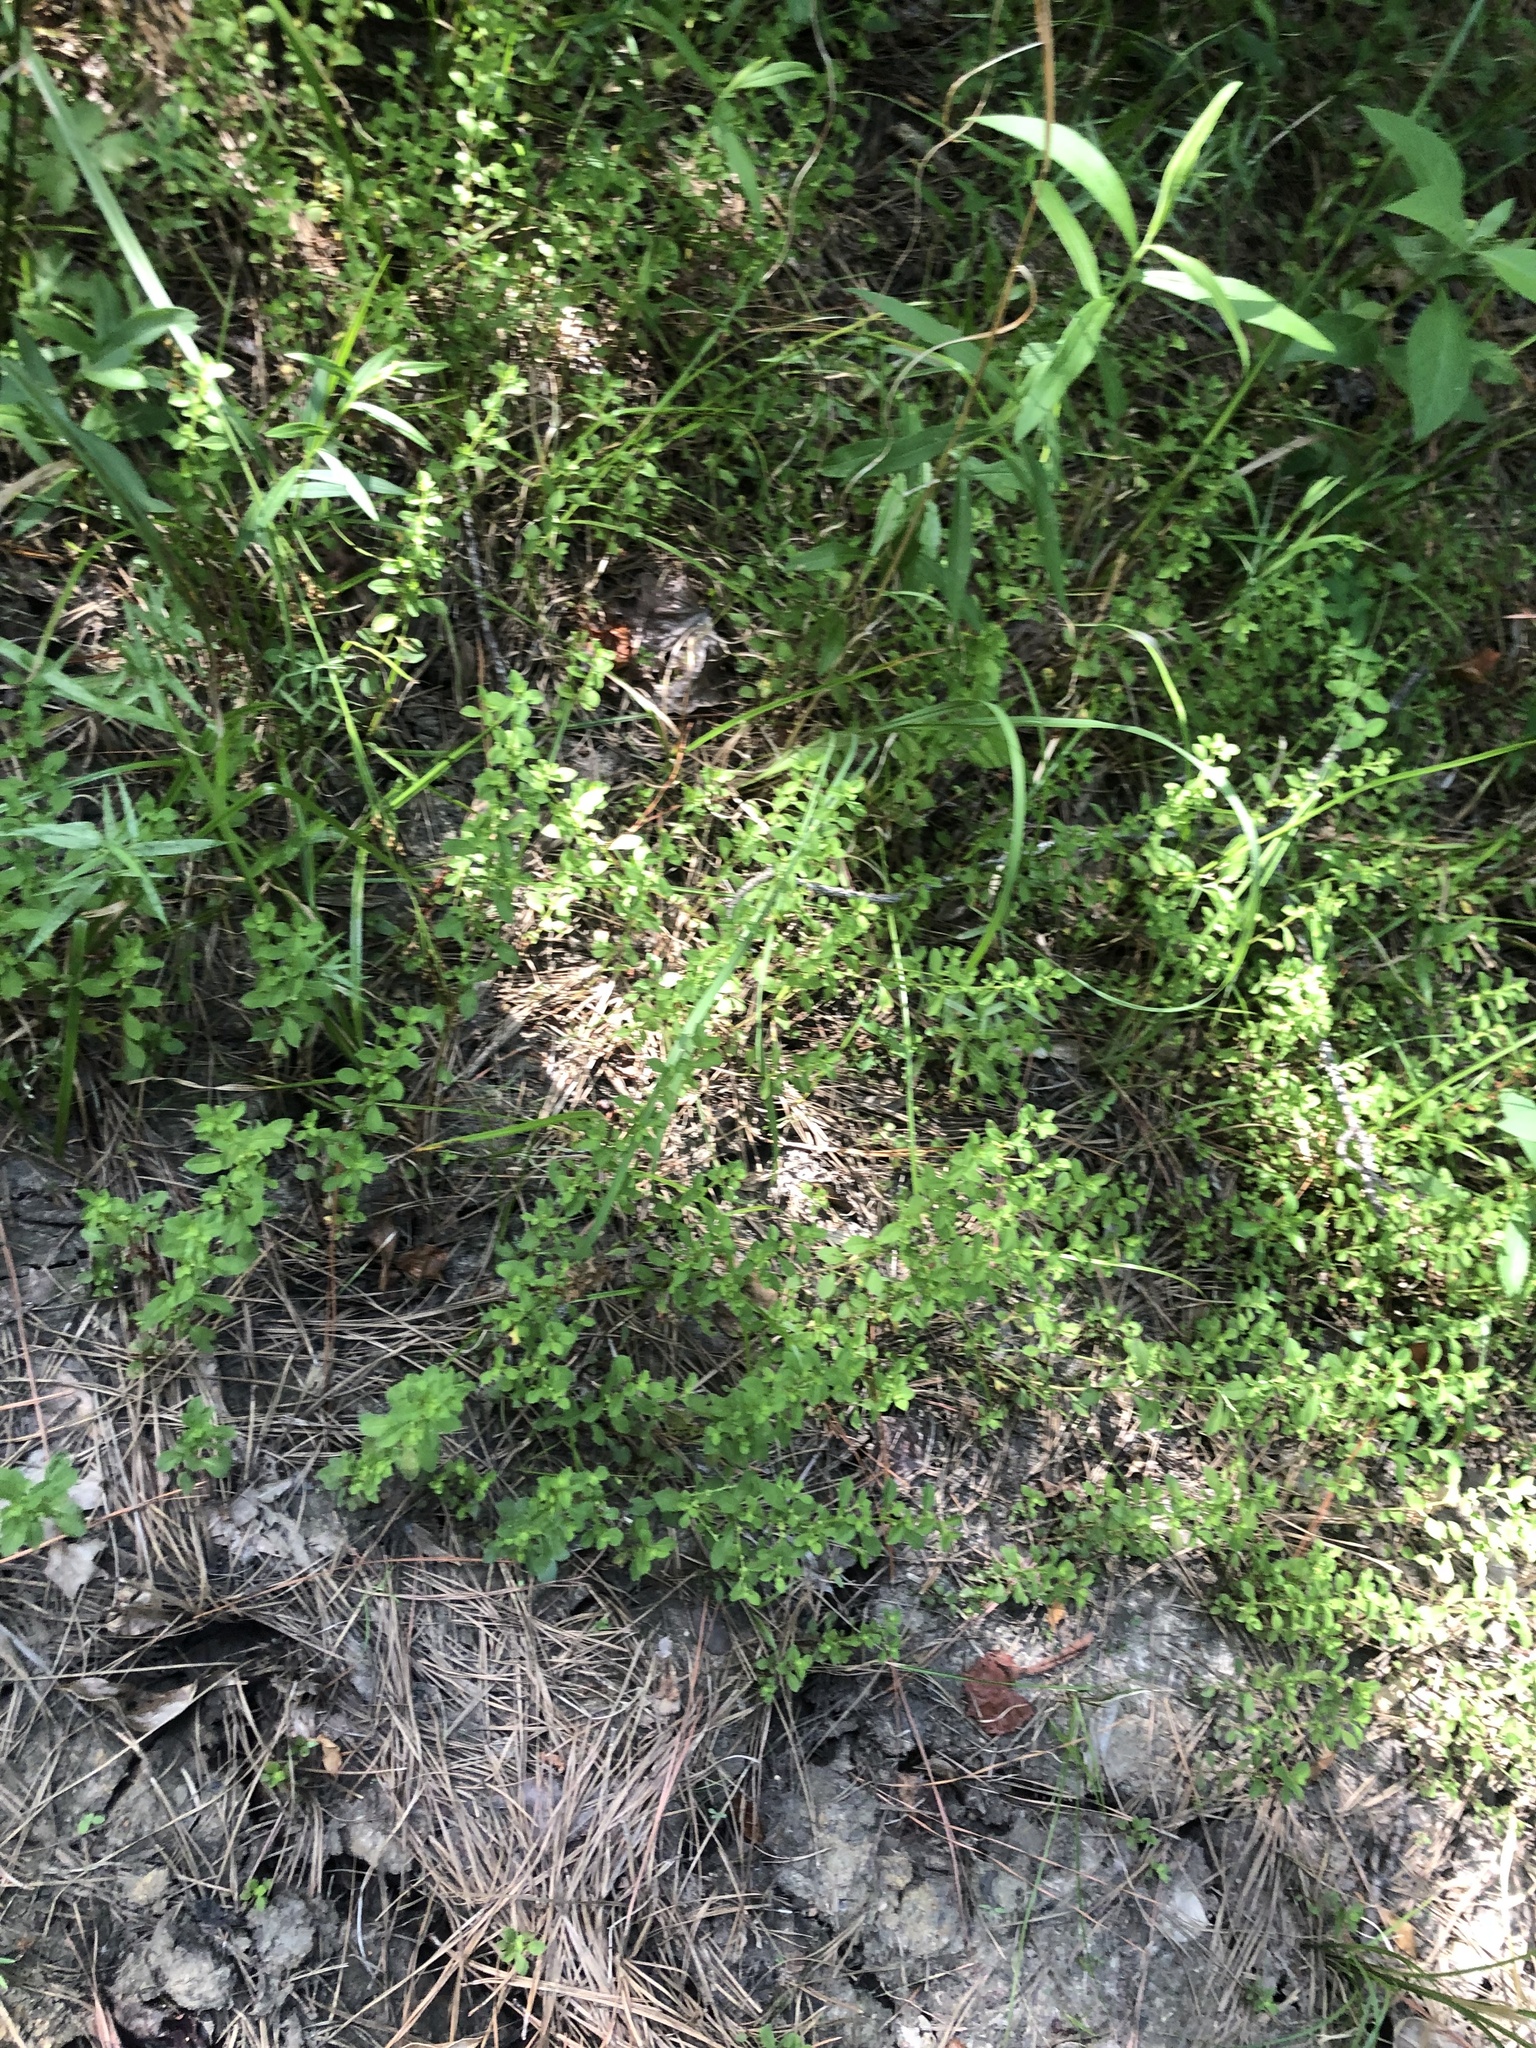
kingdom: Plantae
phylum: Tracheophyta
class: Magnoliopsida
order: Myrtales
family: Onagraceae
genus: Ludwigia
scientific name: Ludwigia microcarpa
